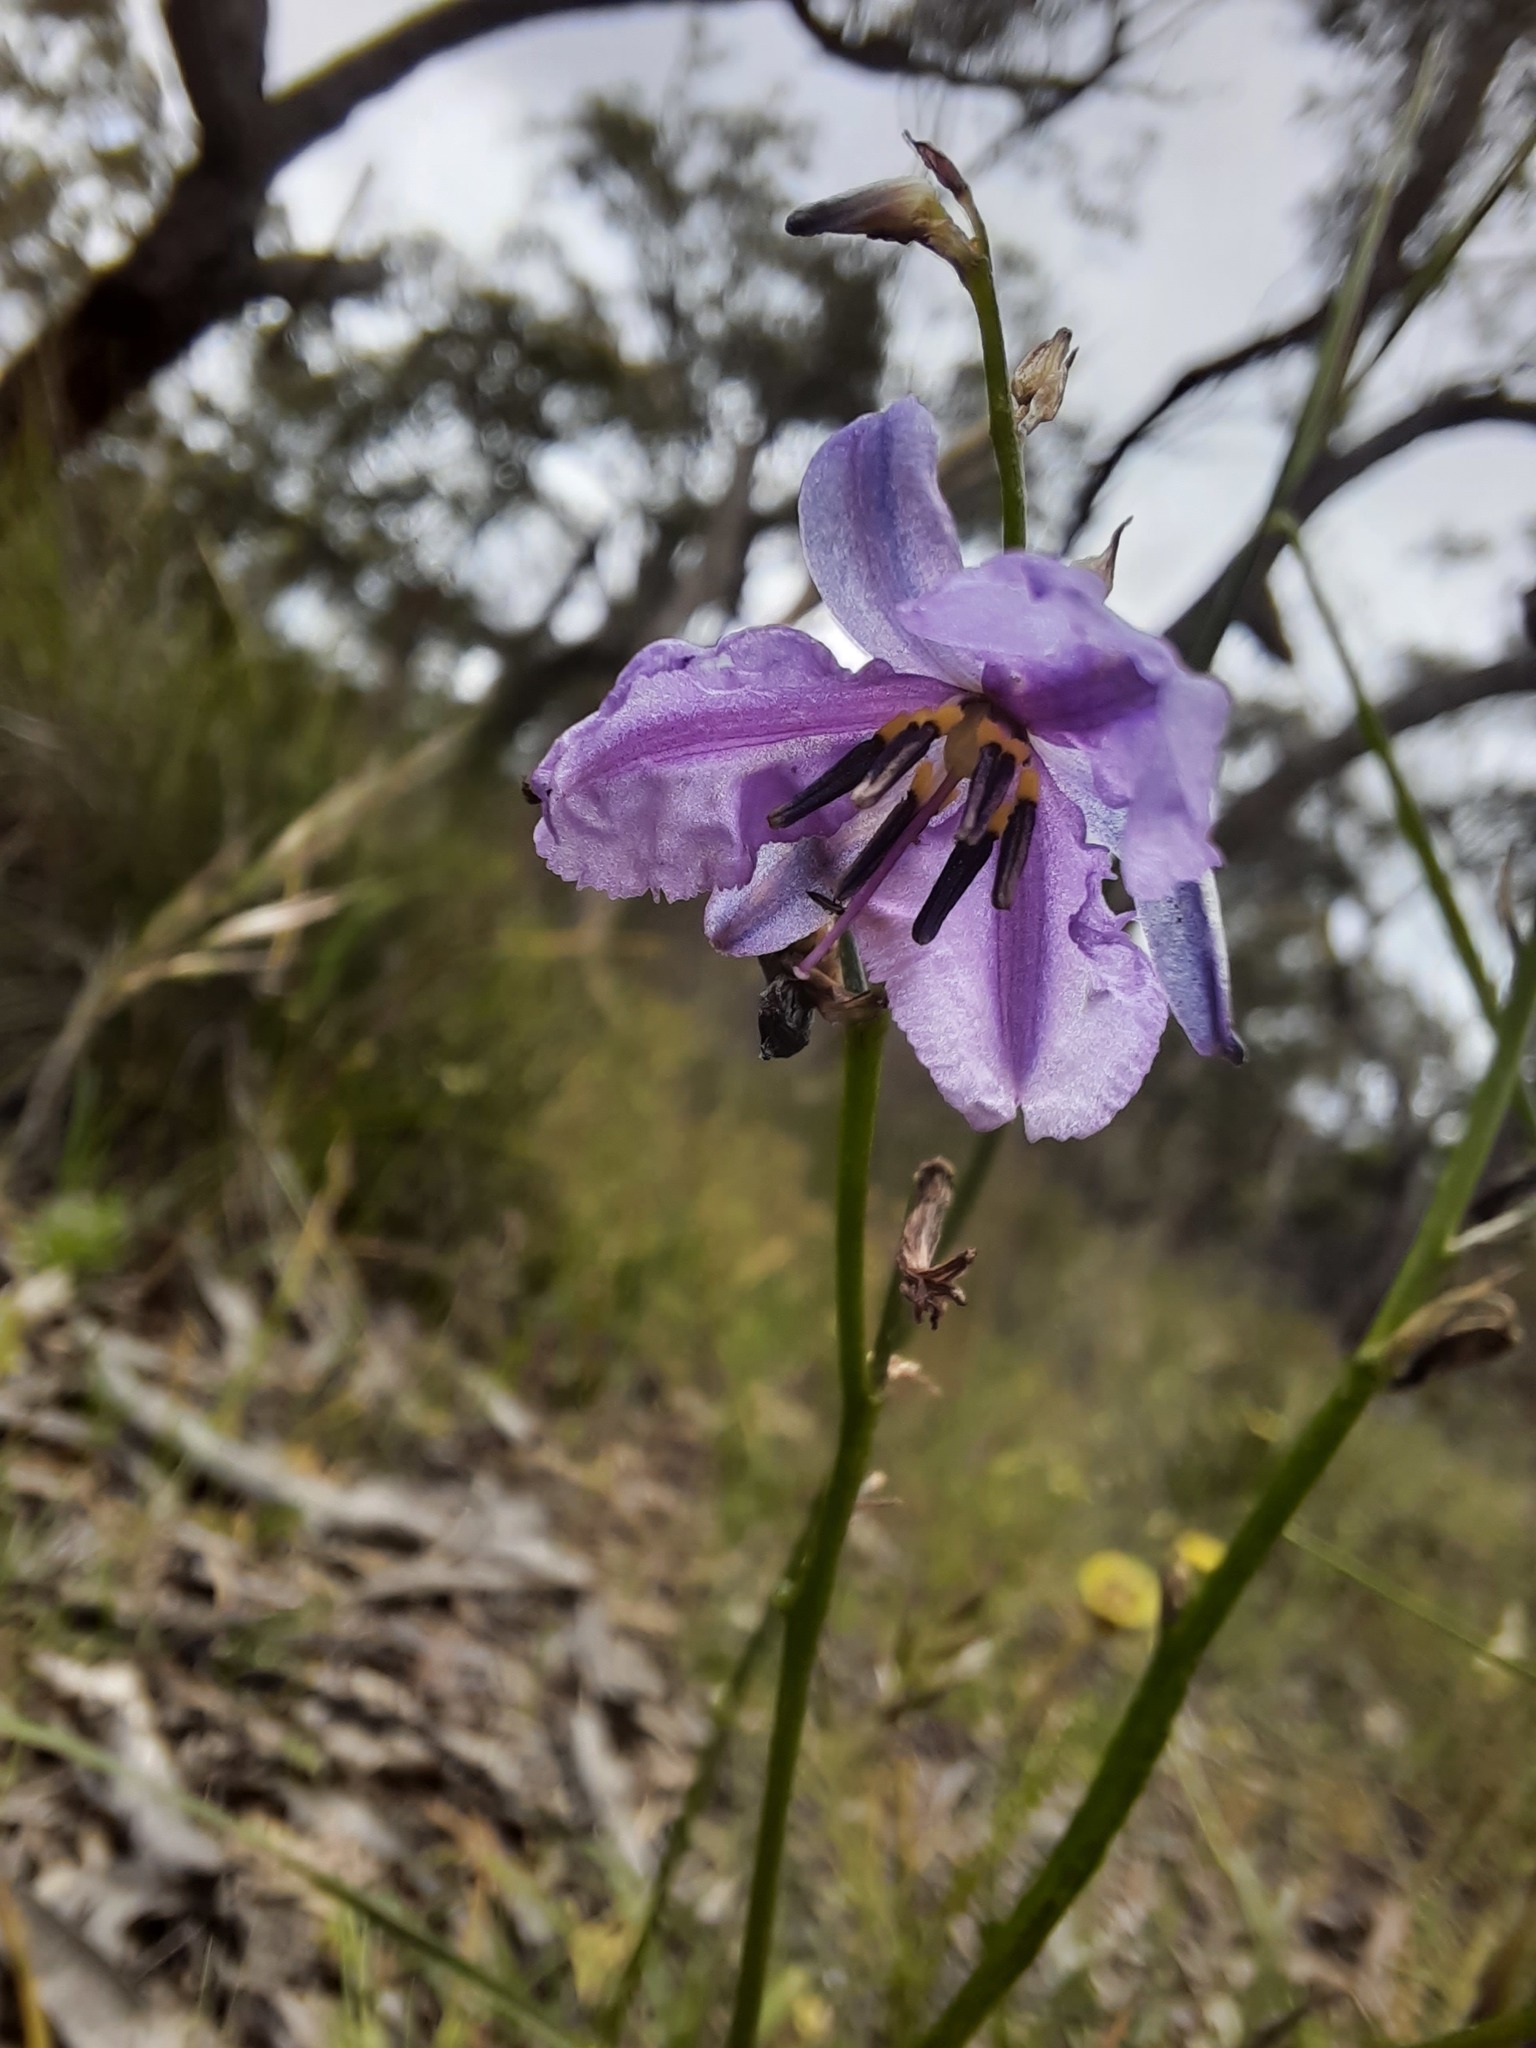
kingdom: Plantae
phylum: Tracheophyta
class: Liliopsida
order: Asparagales
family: Asparagaceae
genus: Arthropodium
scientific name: Arthropodium strictum
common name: Chocolate-lily
